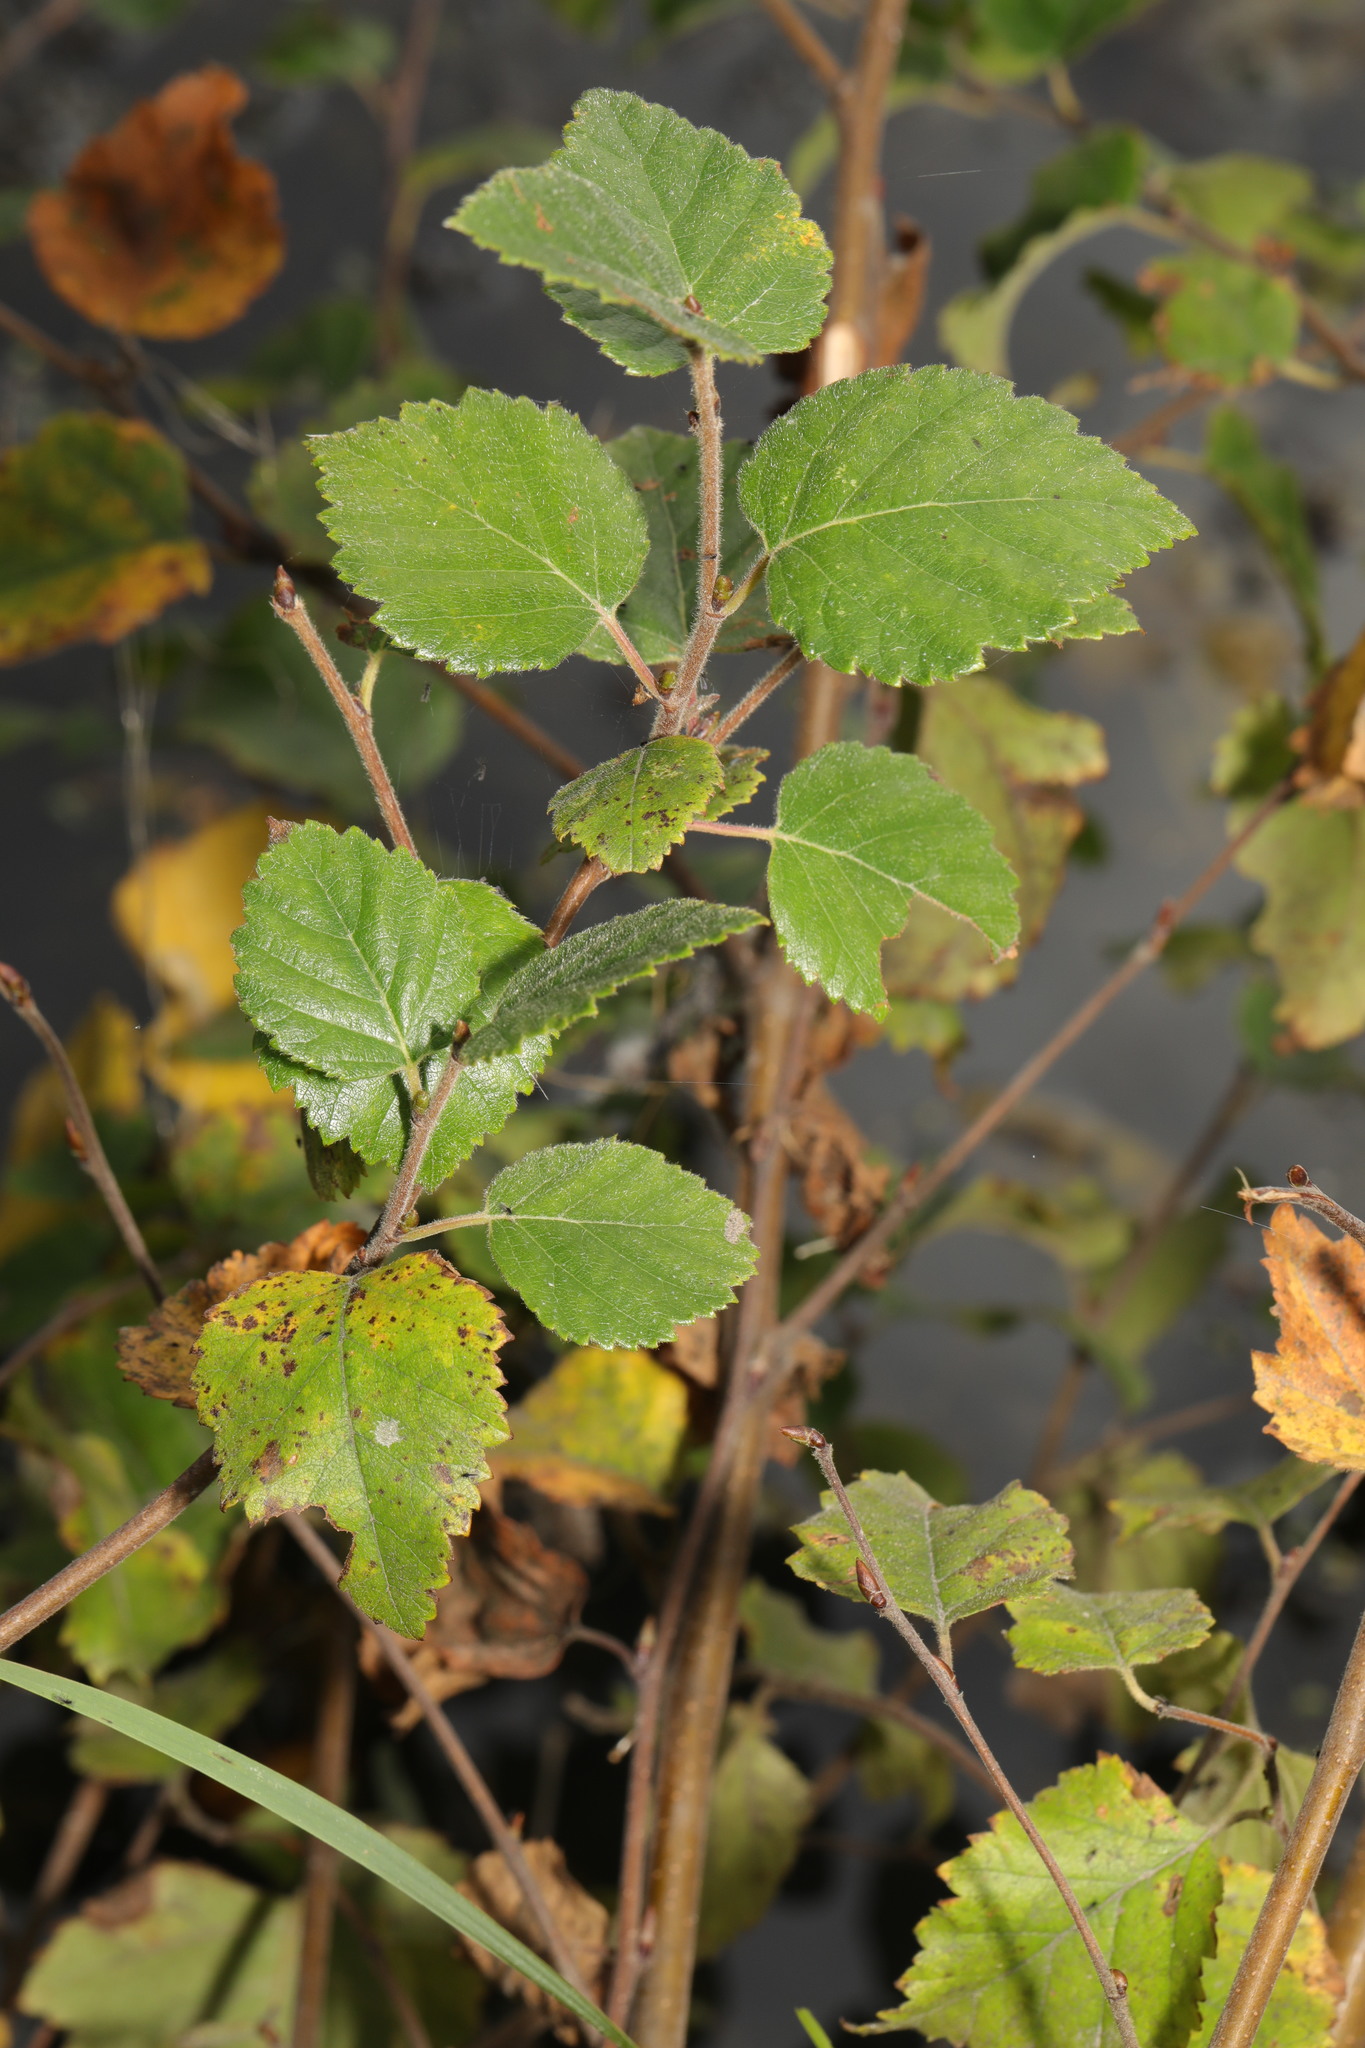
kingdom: Plantae
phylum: Tracheophyta
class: Magnoliopsida
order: Fagales
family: Betulaceae
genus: Betula
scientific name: Betula pubescens
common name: Downy birch
